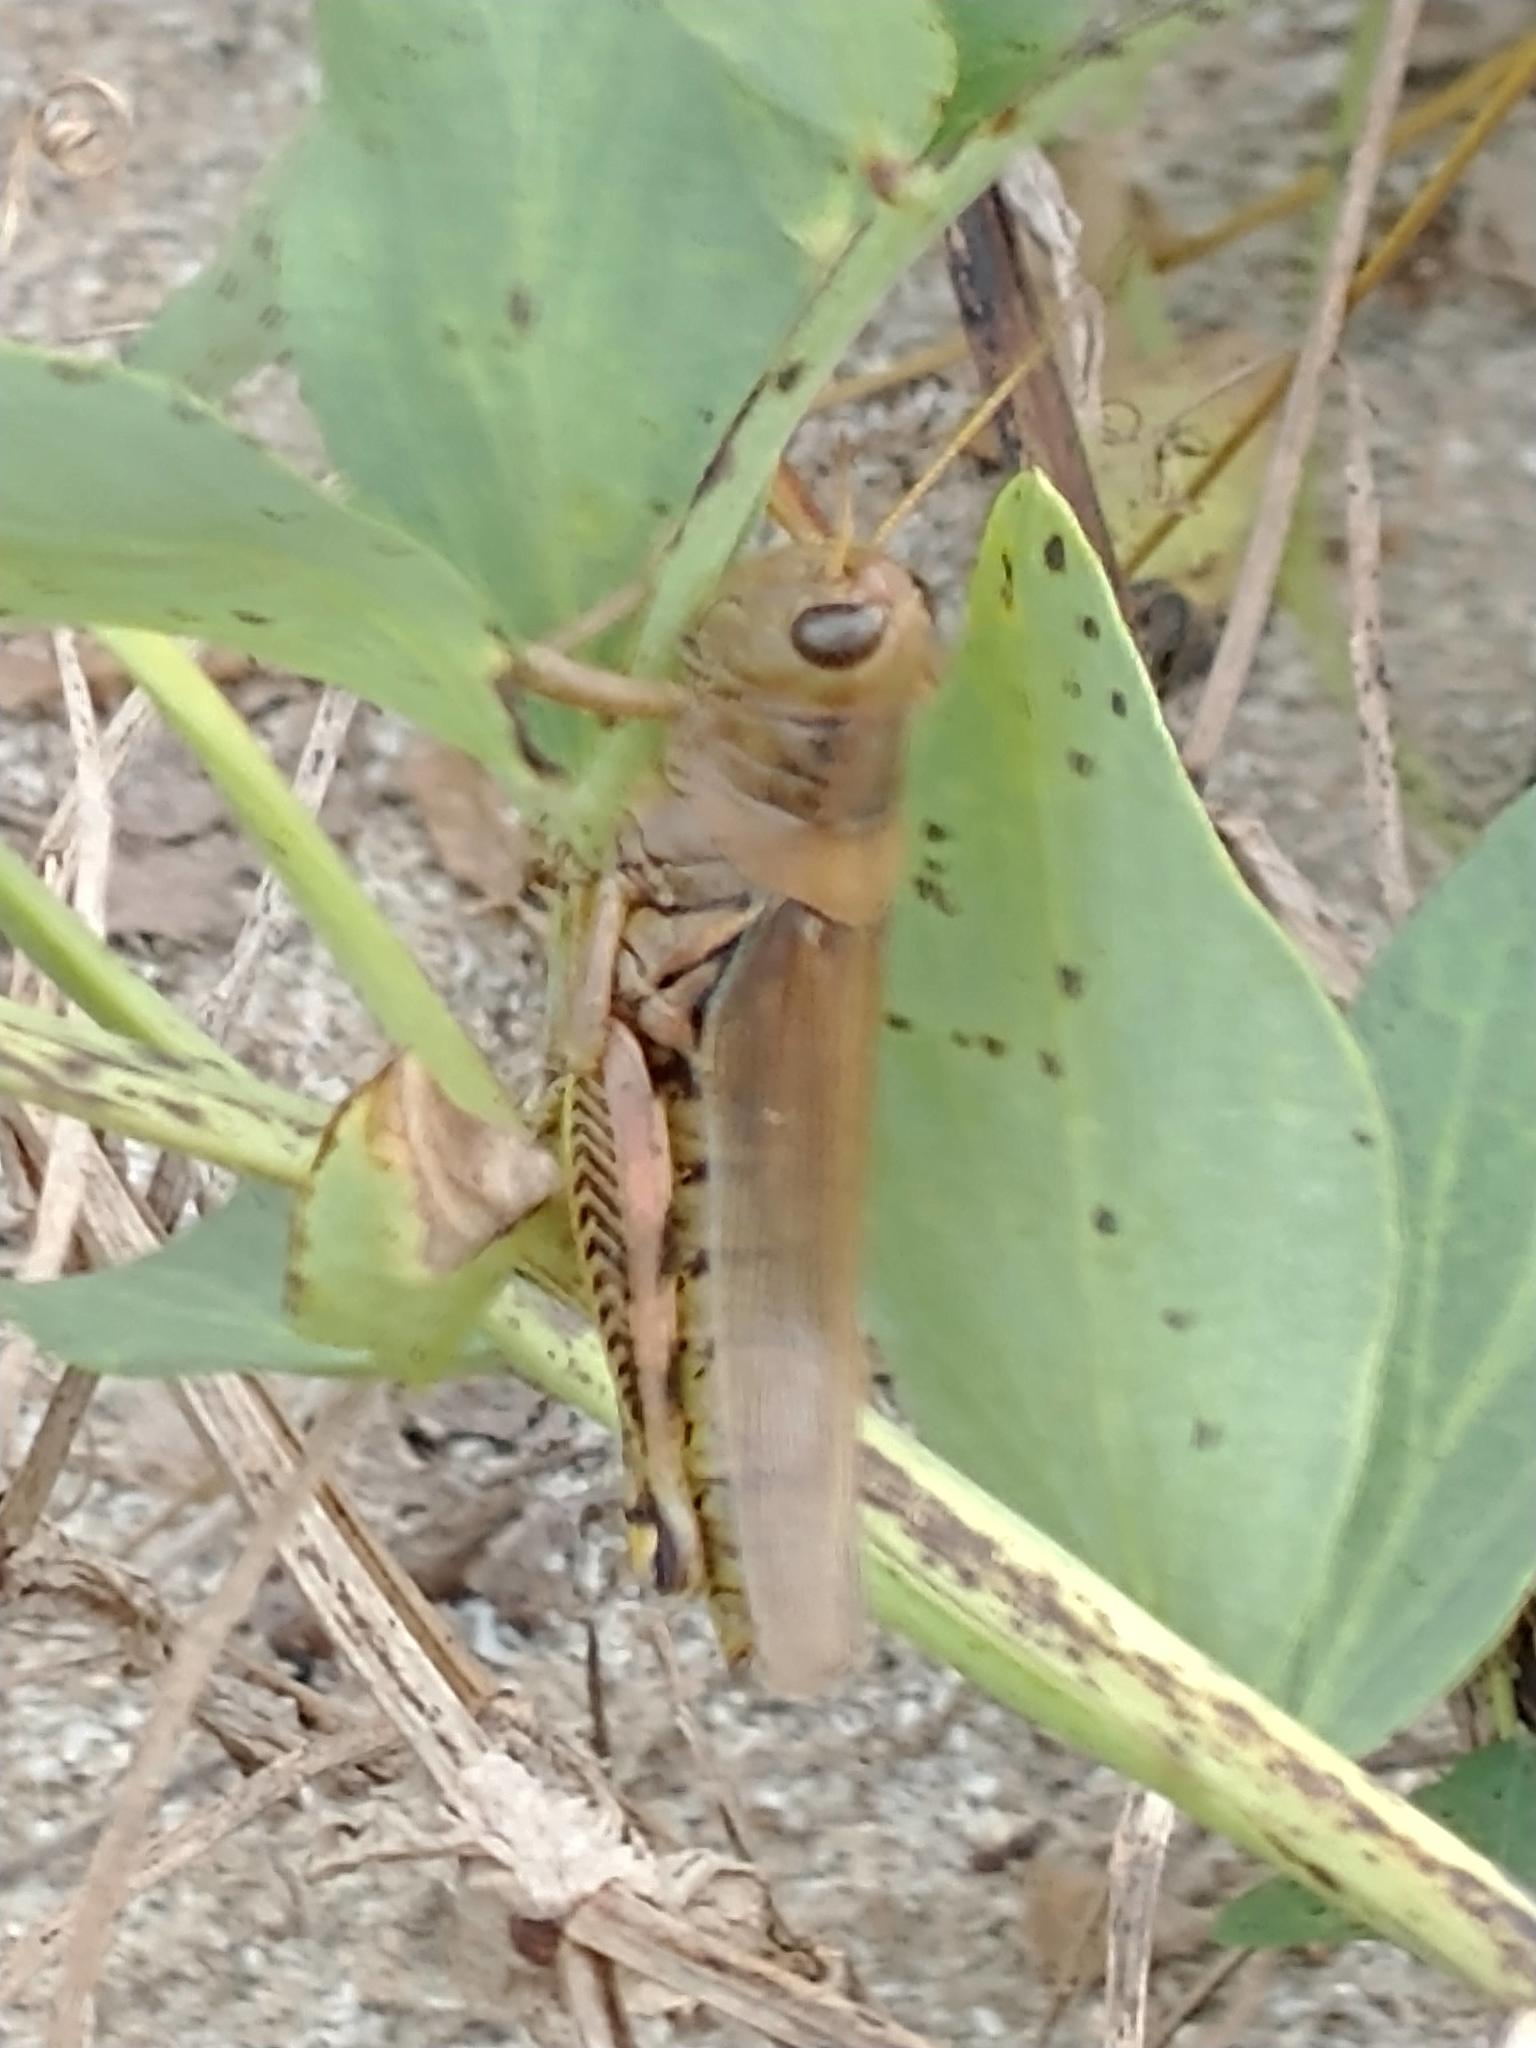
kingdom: Animalia
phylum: Arthropoda
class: Insecta
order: Orthoptera
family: Acrididae
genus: Melanoplus
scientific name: Melanoplus differentialis
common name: Differential grasshopper
